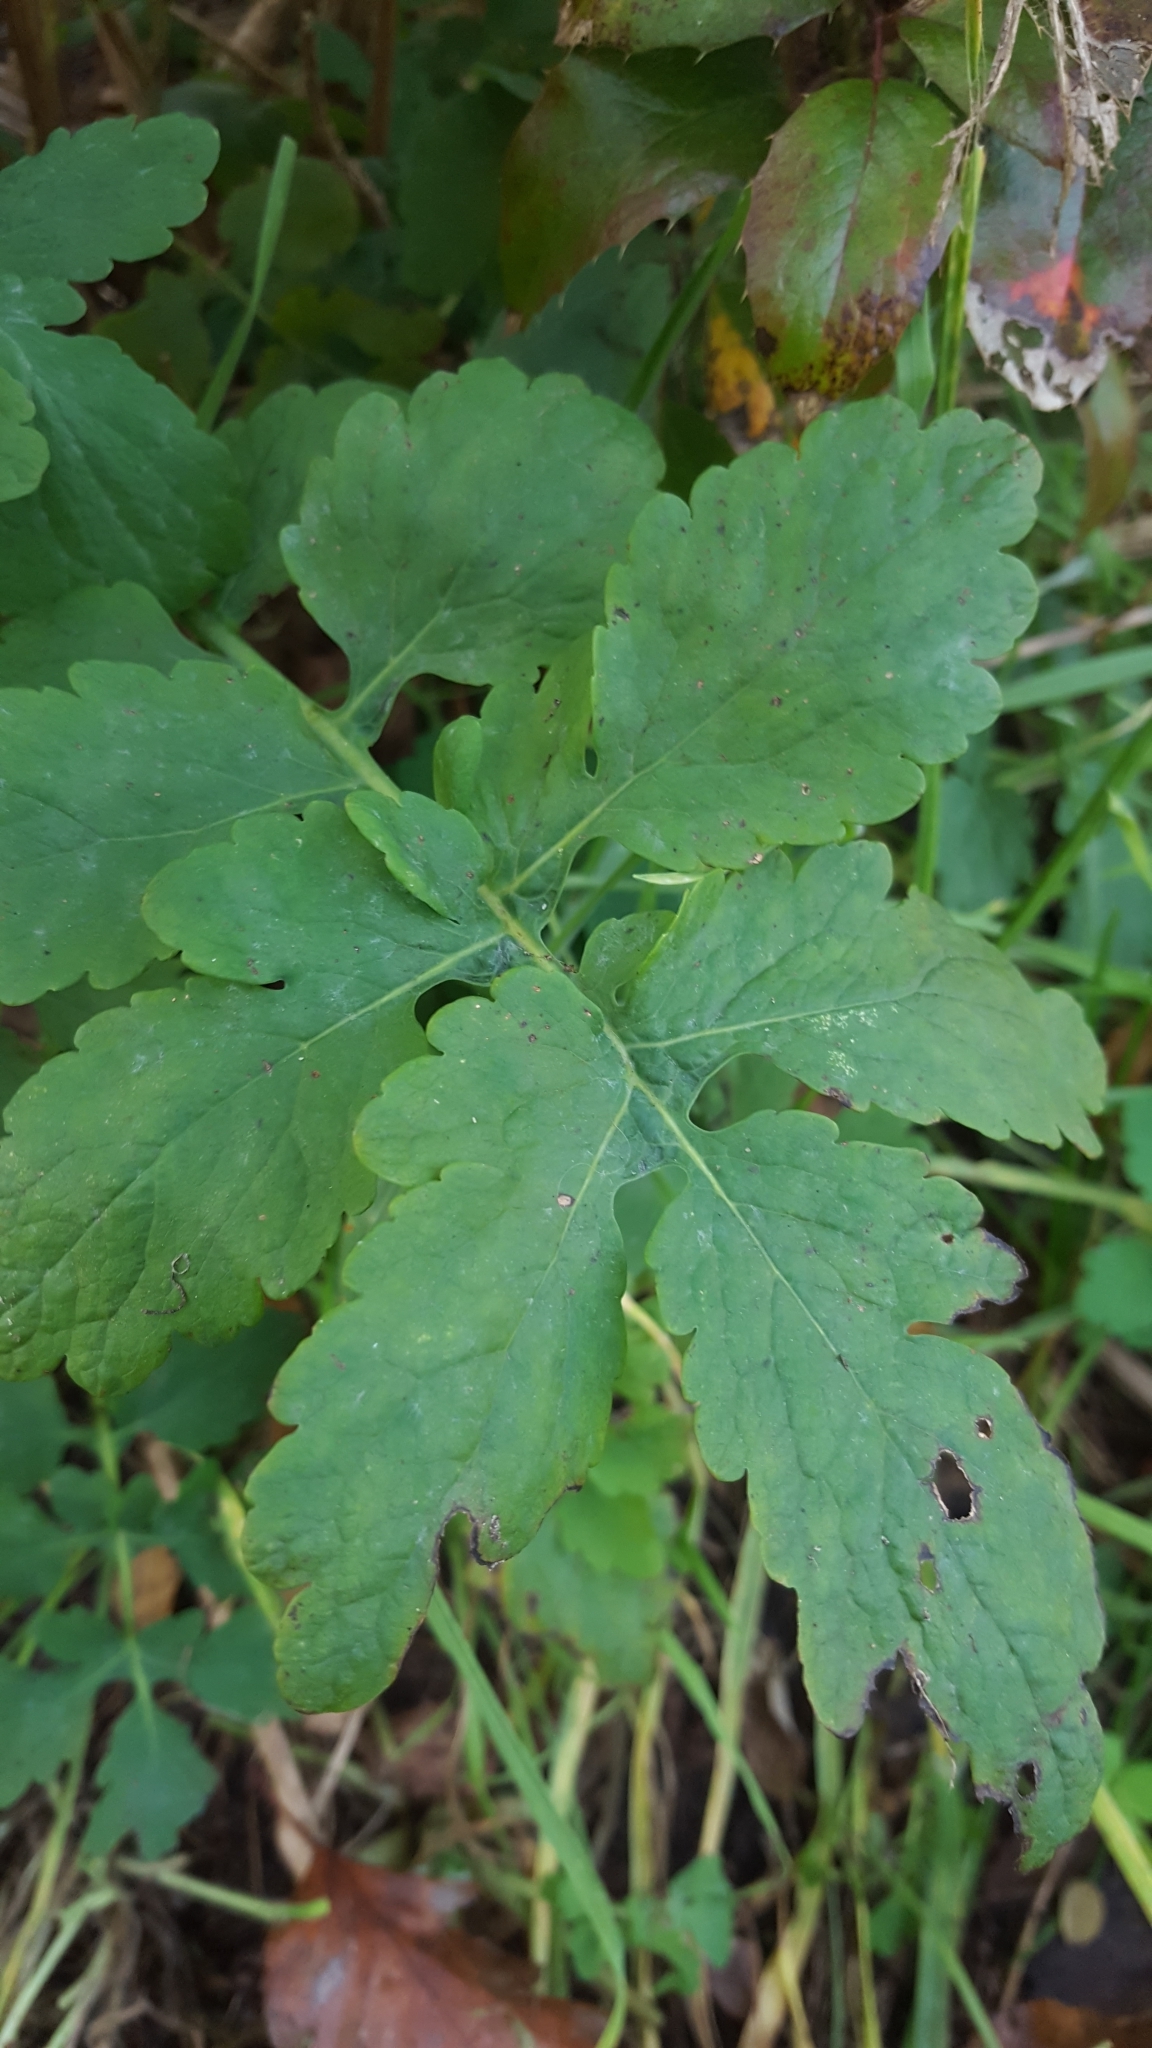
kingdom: Plantae
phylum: Tracheophyta
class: Magnoliopsida
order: Ranunculales
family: Papaveraceae
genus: Chelidonium
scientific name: Chelidonium majus
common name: Greater celandine
